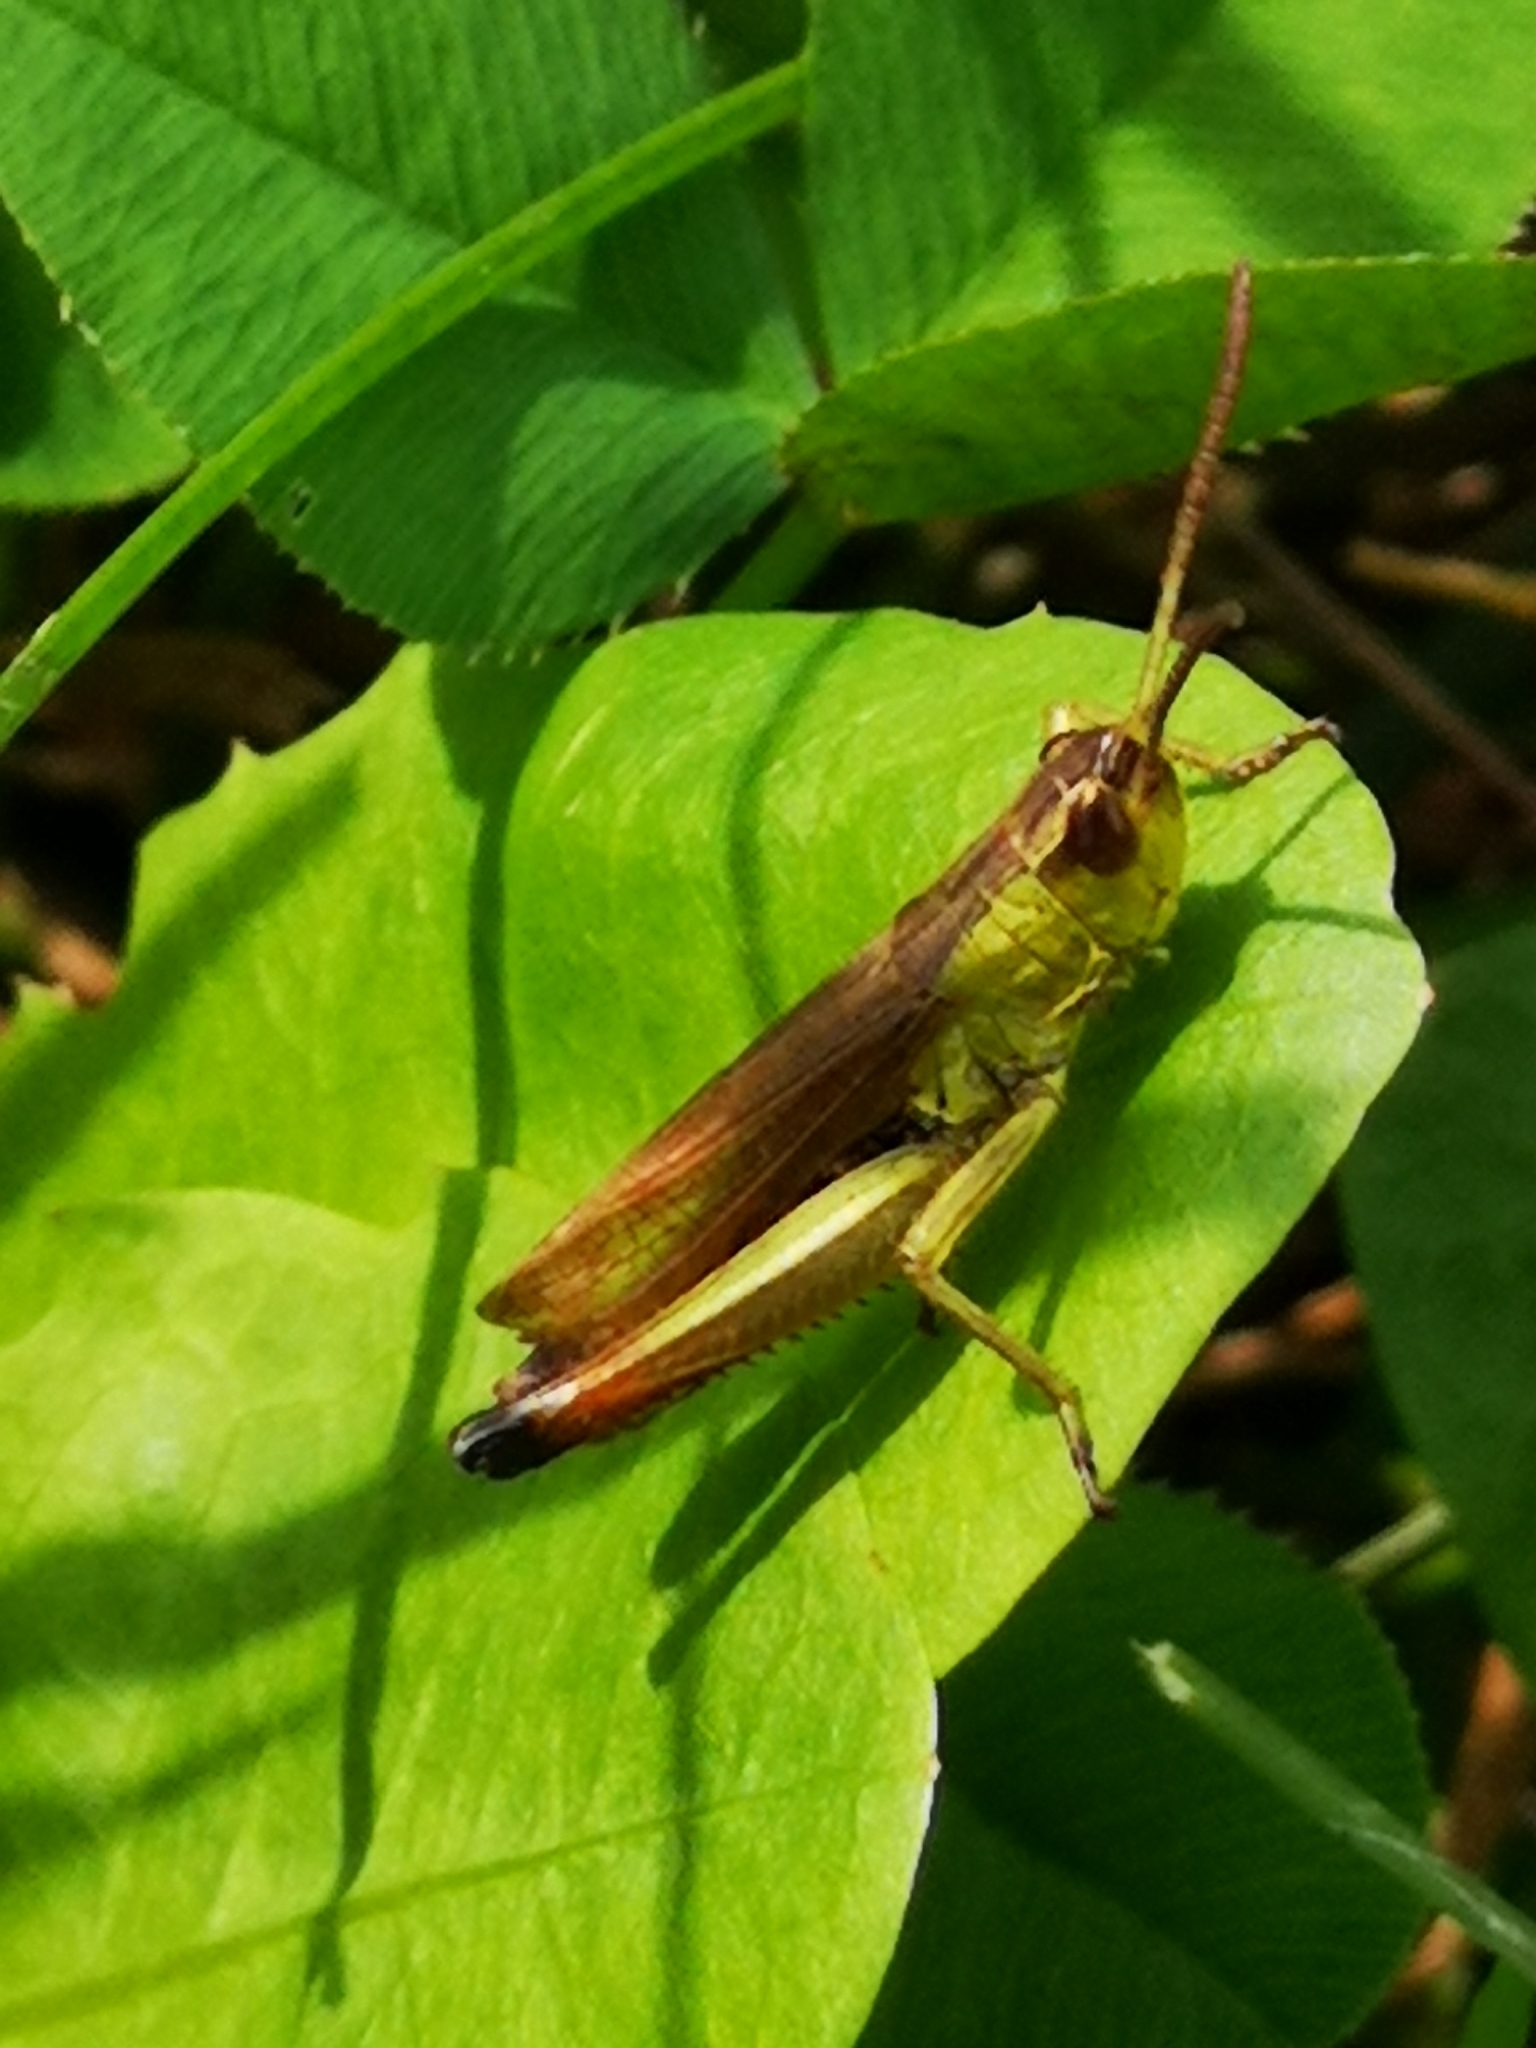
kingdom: Animalia
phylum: Arthropoda
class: Insecta
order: Orthoptera
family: Acrididae
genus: Pseudochorthippus
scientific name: Pseudochorthippus parallelus
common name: Meadow grasshopper
